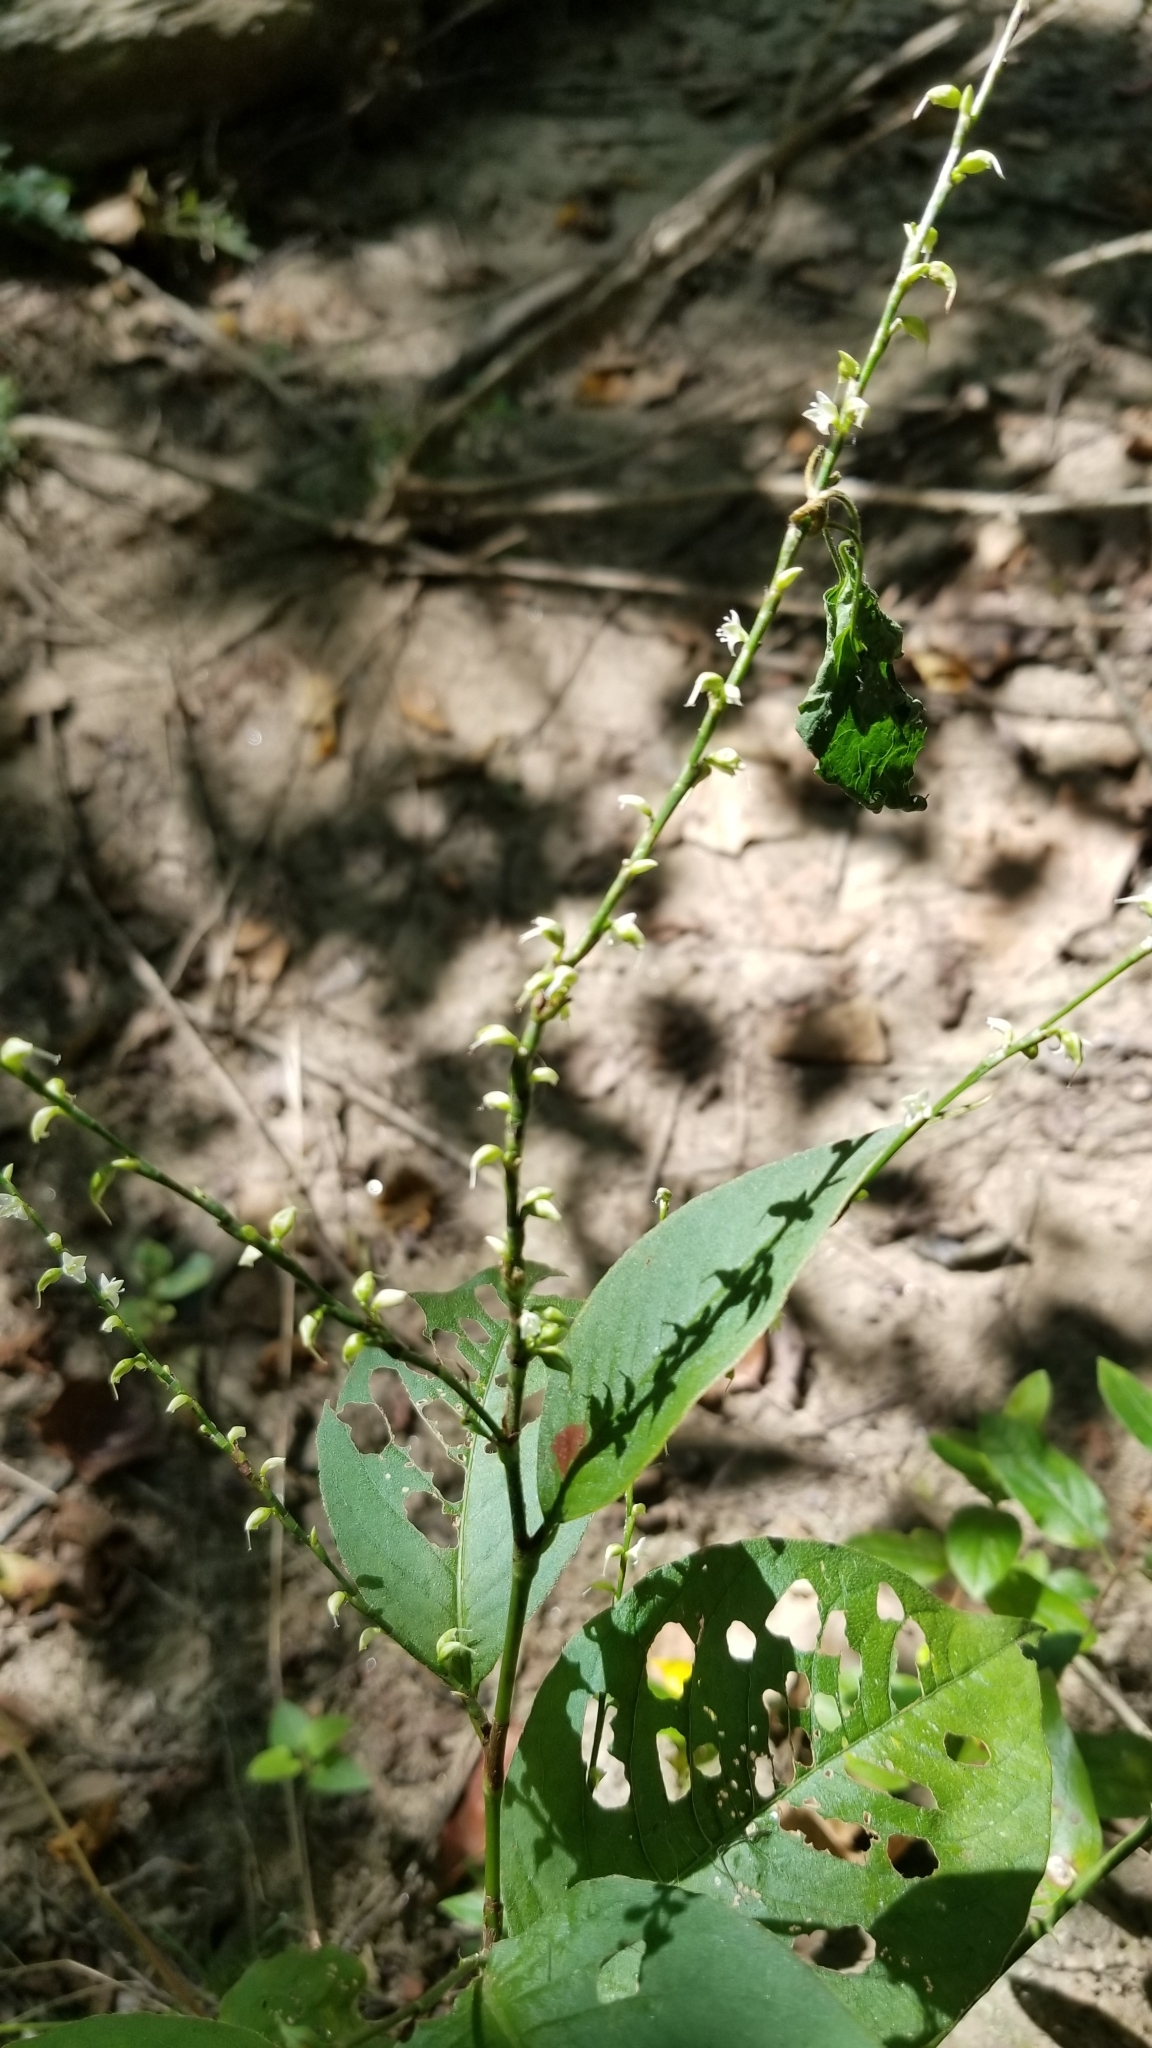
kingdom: Plantae
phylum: Tracheophyta
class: Magnoliopsida
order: Caryophyllales
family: Polygonaceae
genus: Persicaria
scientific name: Persicaria virginiana
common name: Jumpseed
